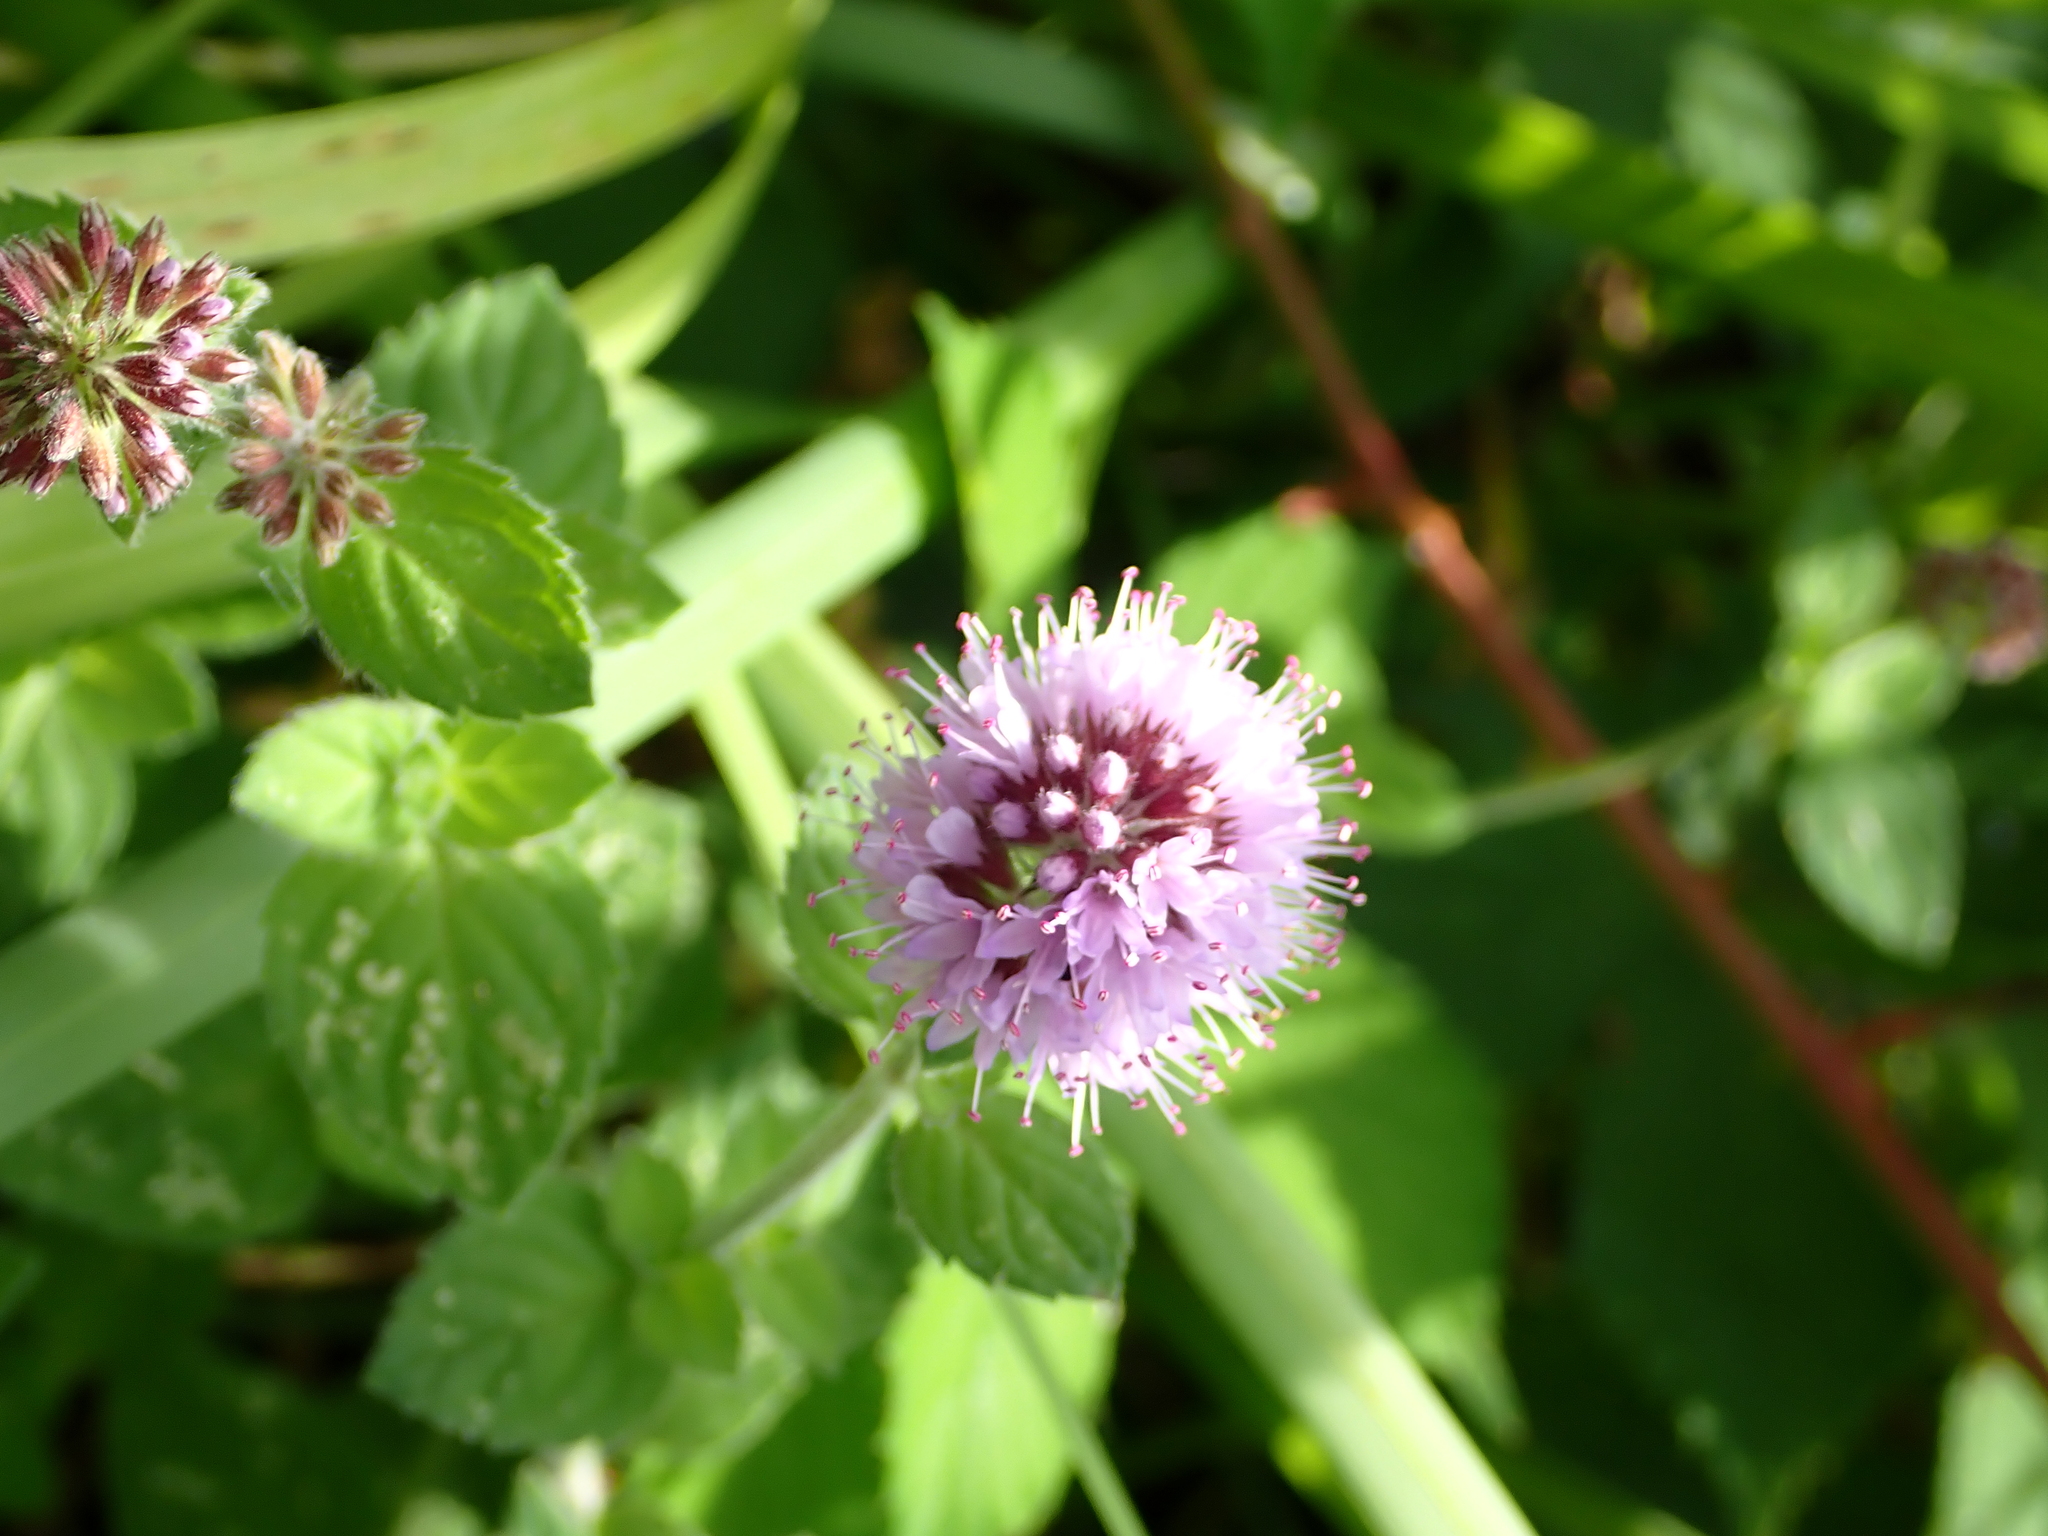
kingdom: Plantae
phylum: Tracheophyta
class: Magnoliopsida
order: Lamiales
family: Lamiaceae
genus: Mentha
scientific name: Mentha aquatica
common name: Water mint
